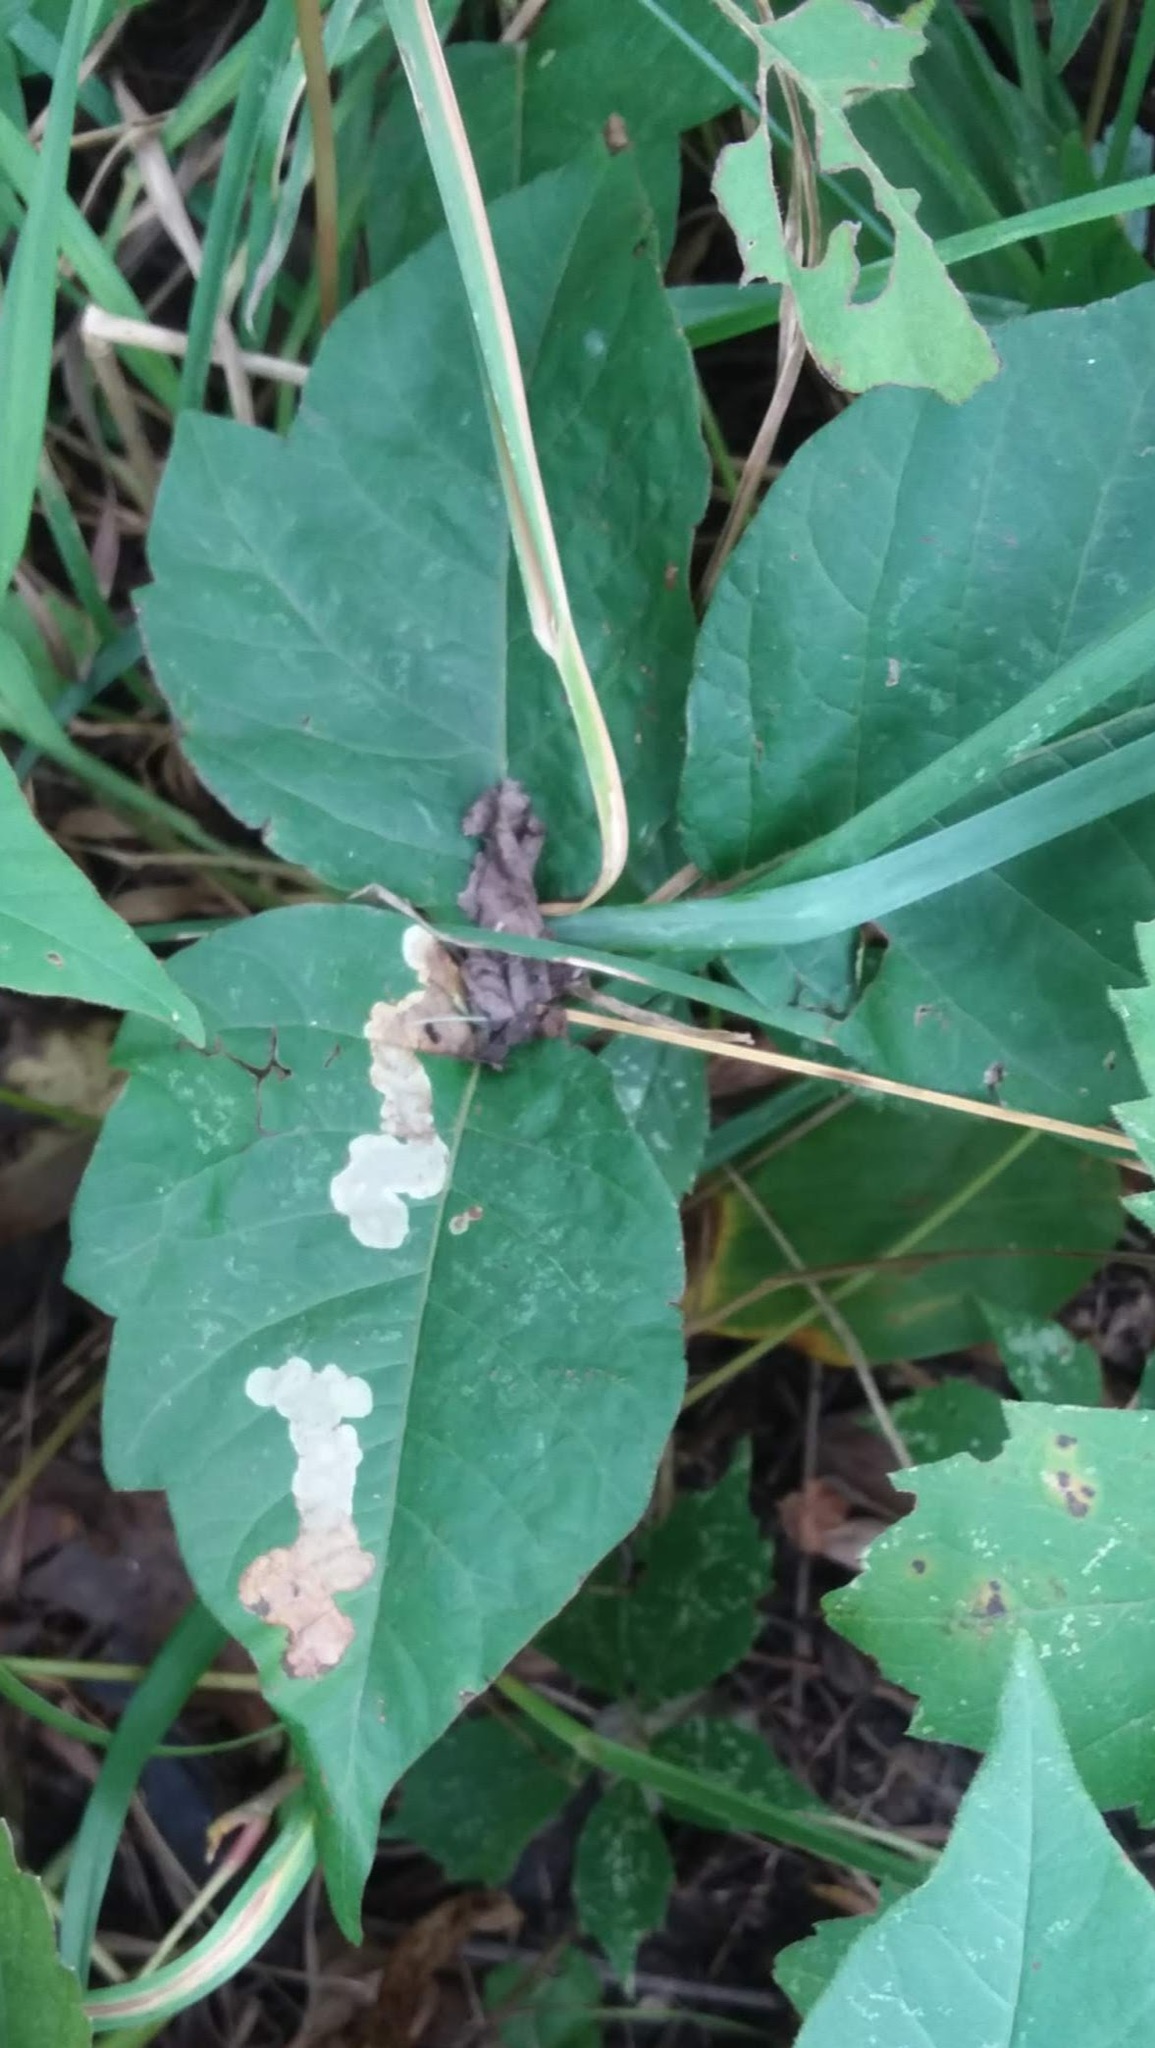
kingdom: Animalia
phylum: Arthropoda
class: Insecta
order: Lepidoptera
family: Gracillariidae
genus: Cameraria
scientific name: Cameraria guttifinitella
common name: Poison ivy leaf-miner moth
